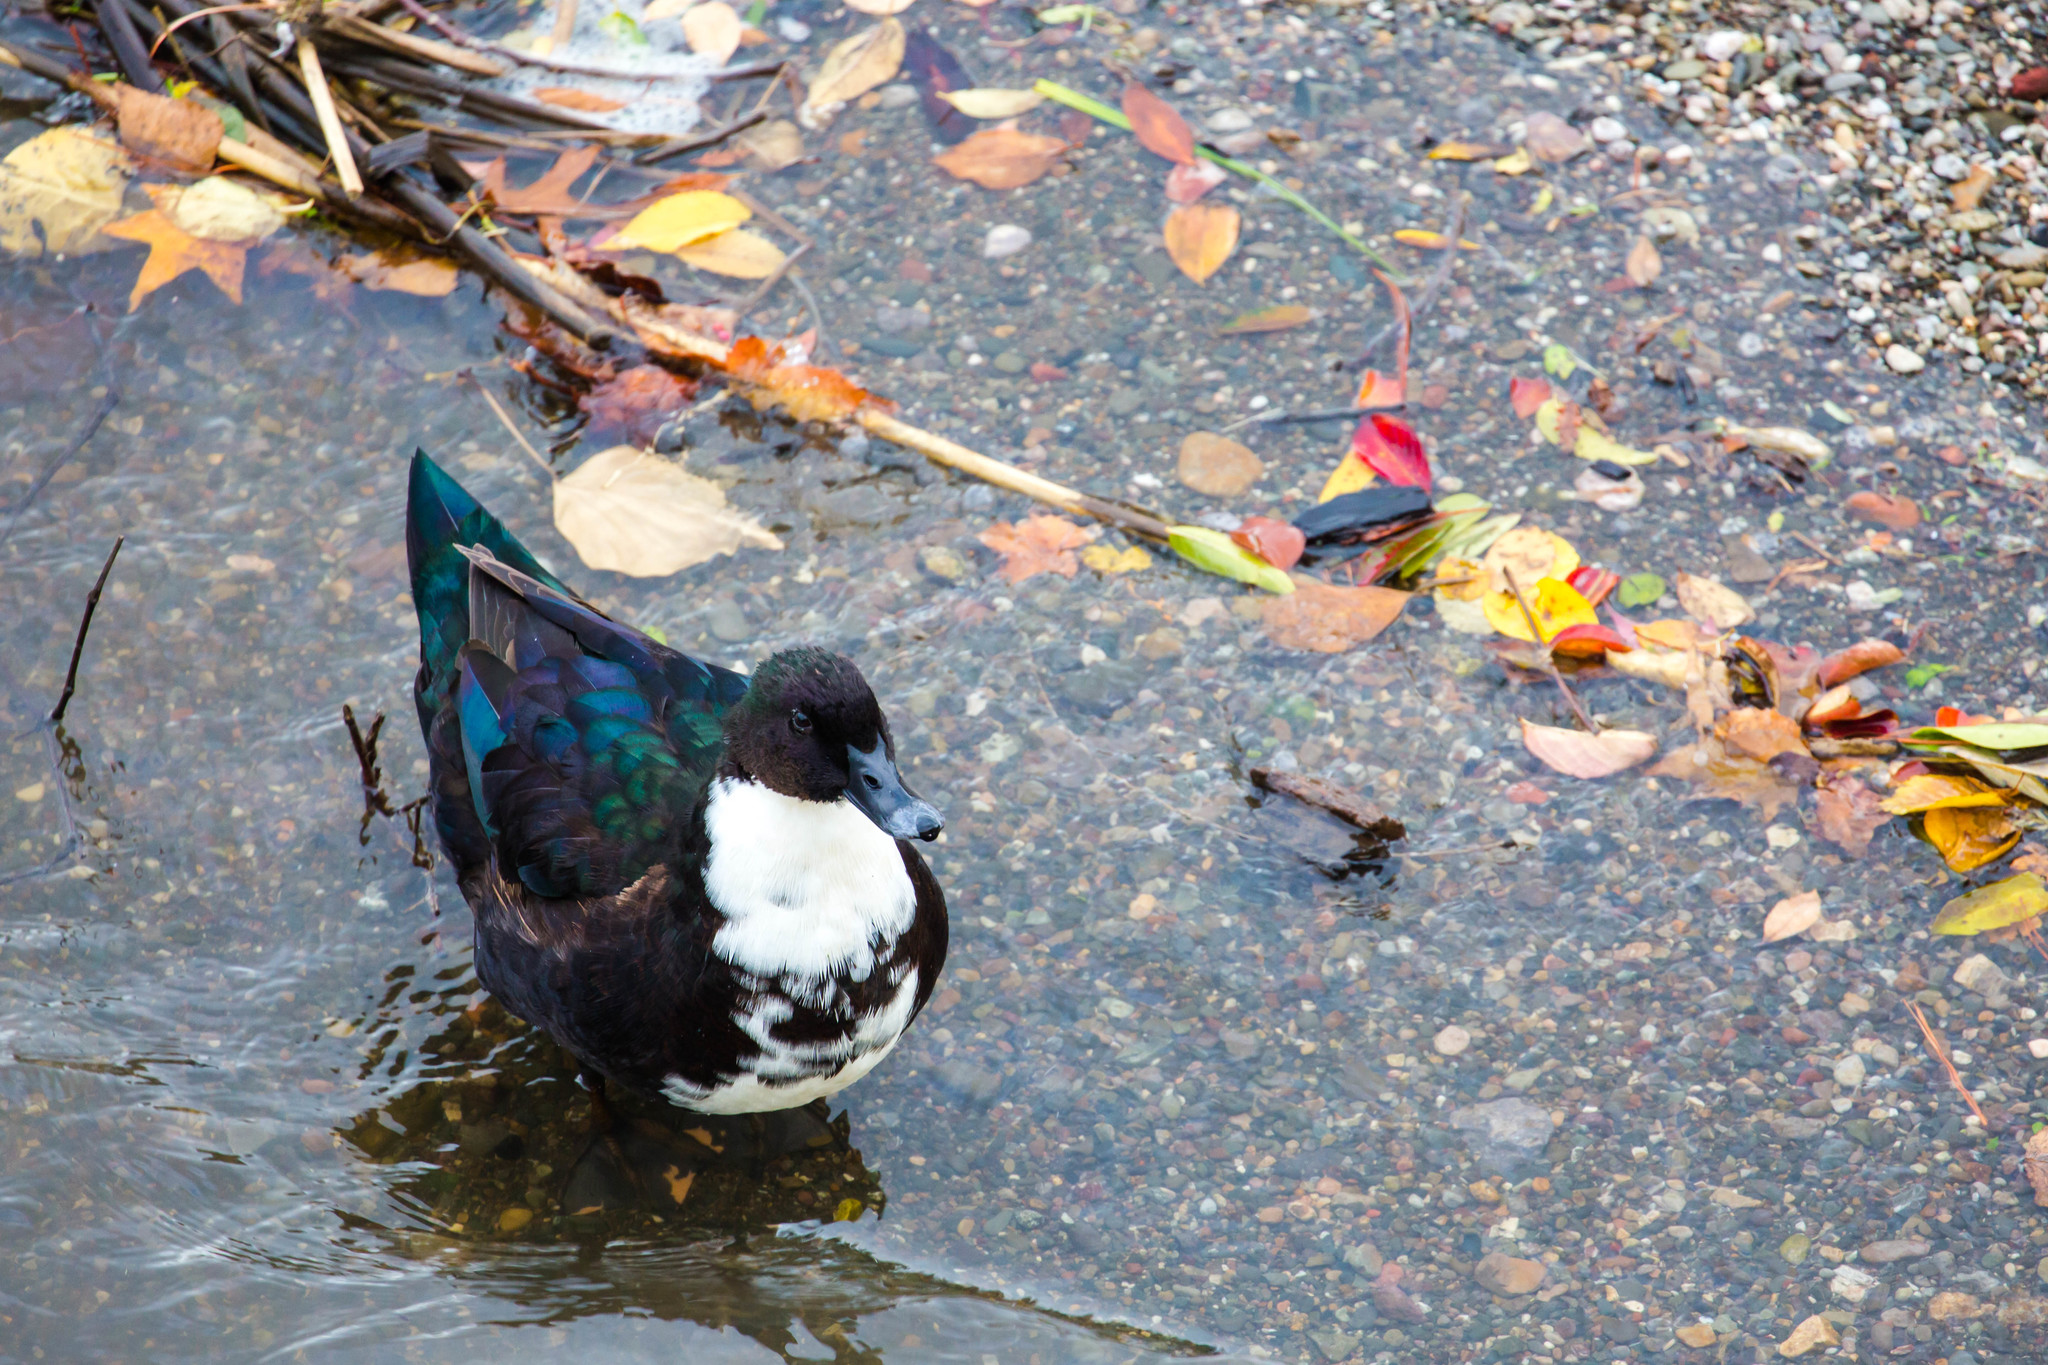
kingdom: Animalia
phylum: Chordata
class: Aves
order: Anseriformes
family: Anatidae
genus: Anas
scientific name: Anas platyrhynchos
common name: Mallard
